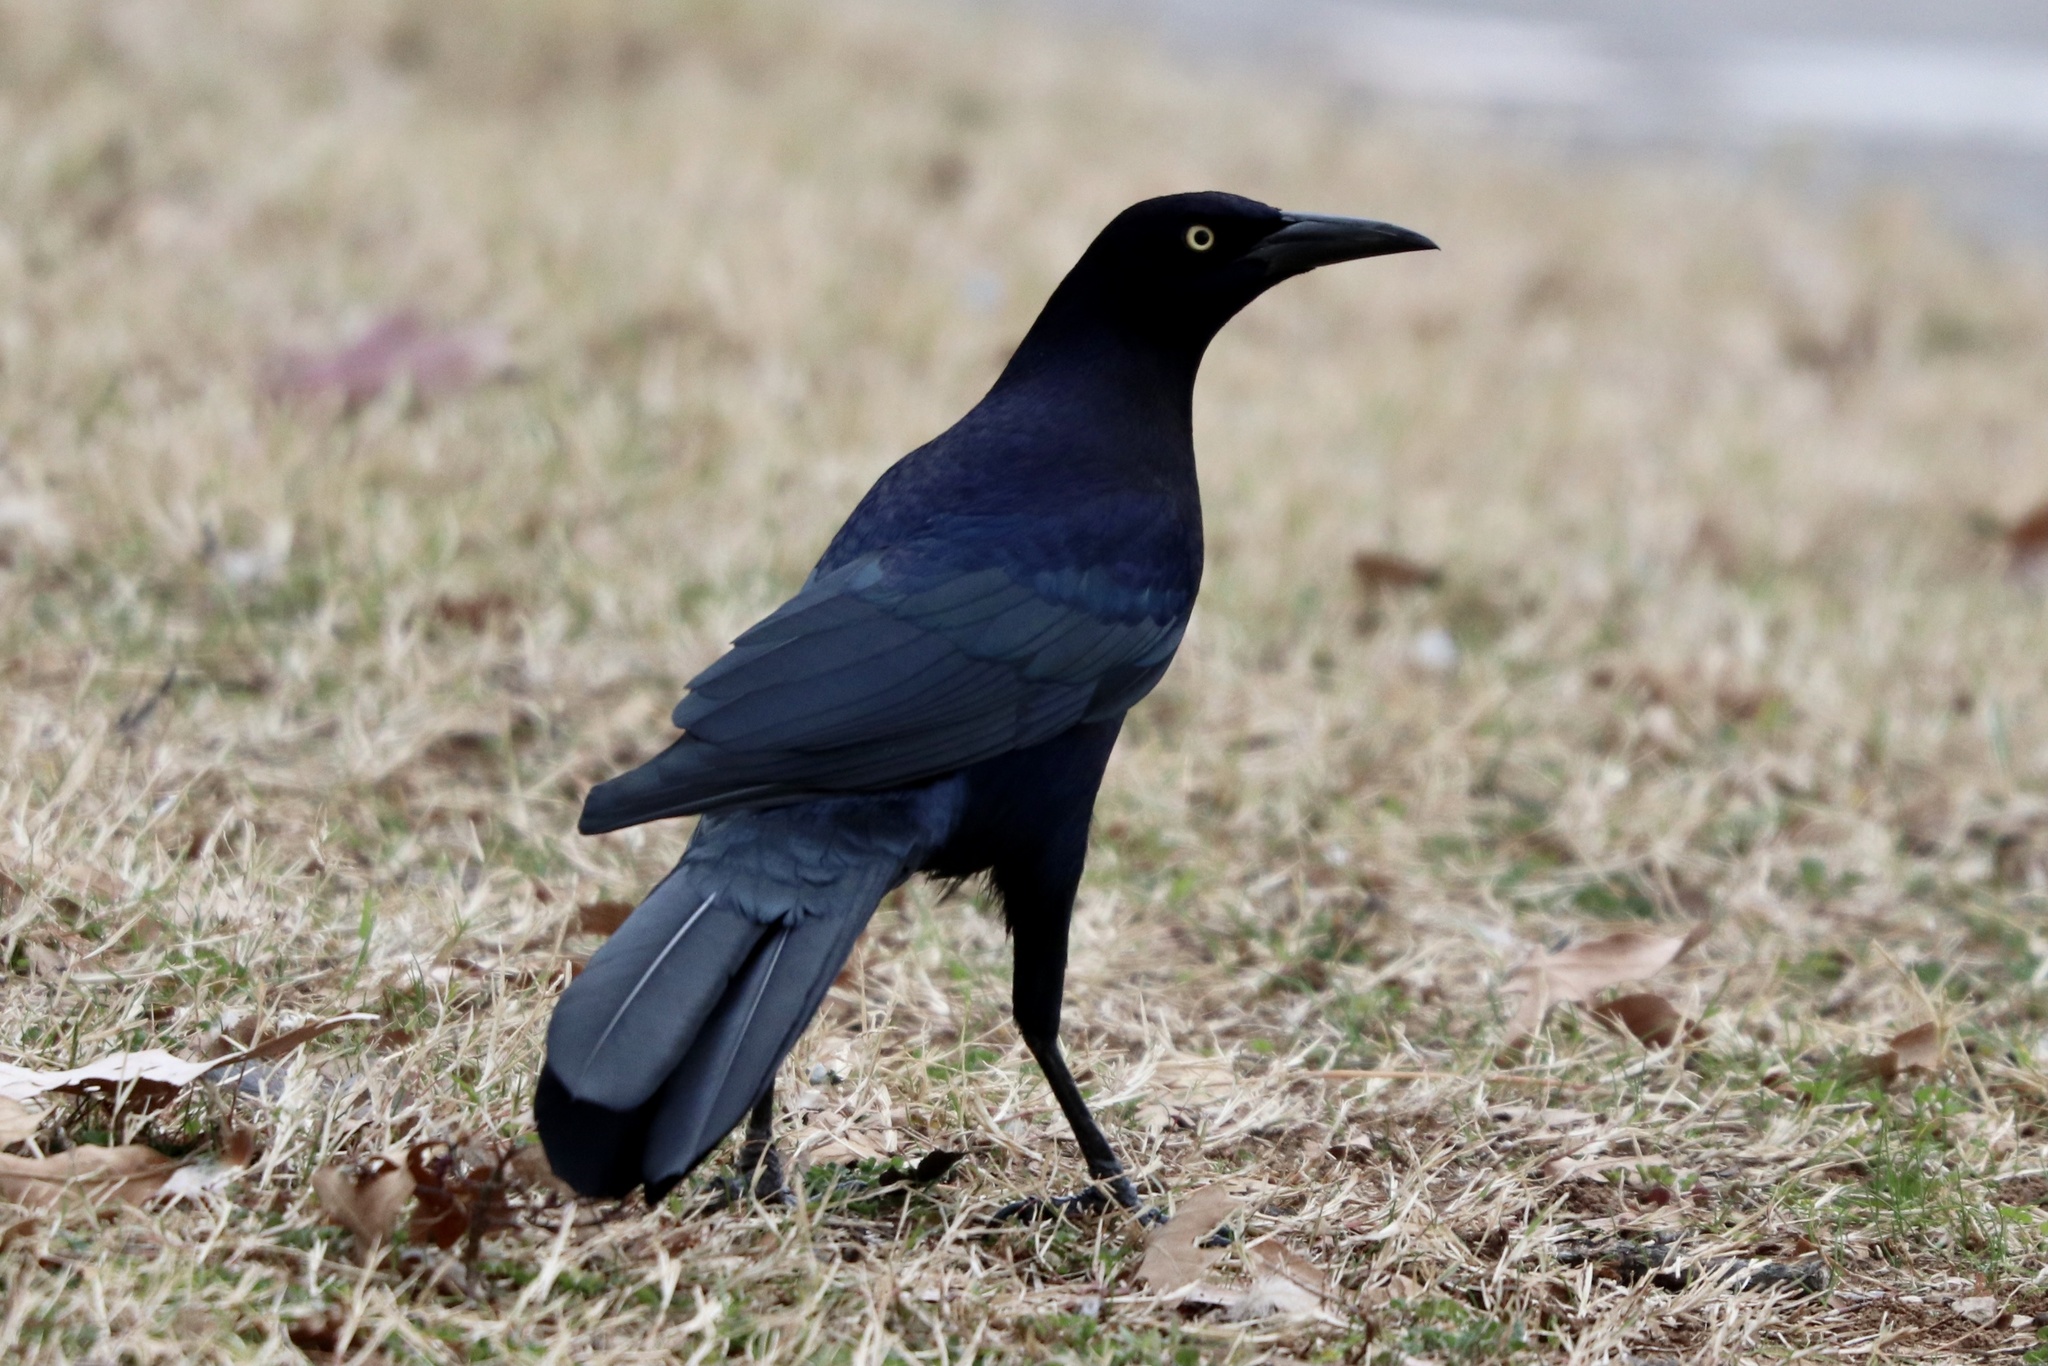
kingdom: Animalia
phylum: Chordata
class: Aves
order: Passeriformes
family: Icteridae
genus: Quiscalus
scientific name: Quiscalus mexicanus
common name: Great-tailed grackle
